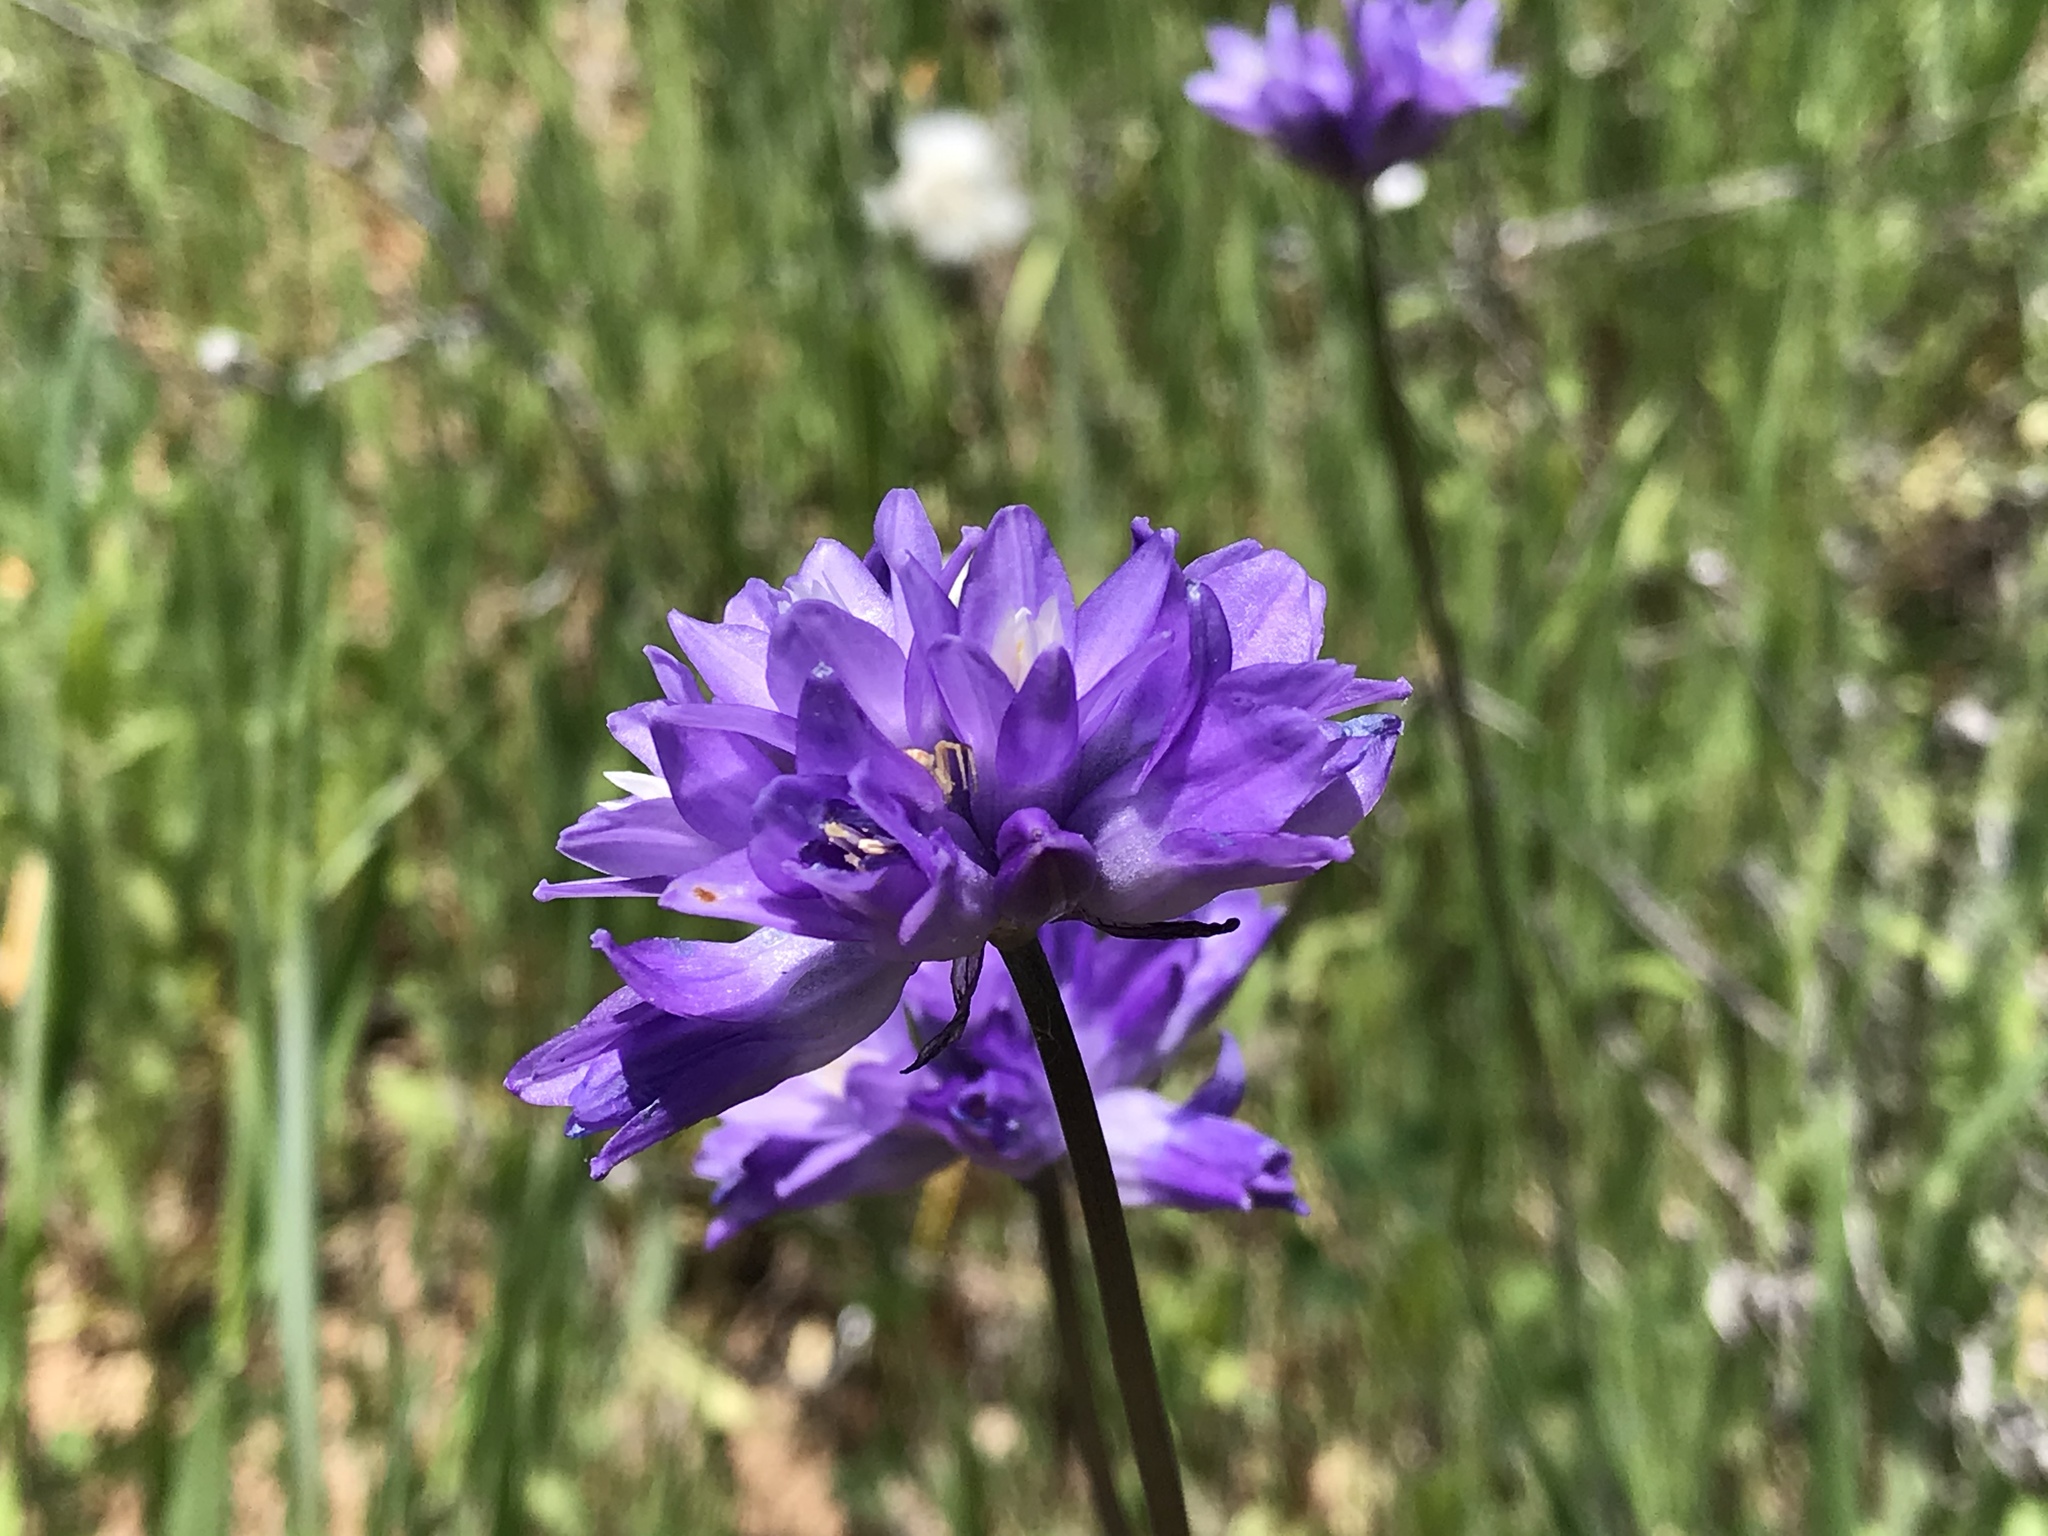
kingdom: Plantae
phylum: Tracheophyta
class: Liliopsida
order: Asparagales
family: Asparagaceae
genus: Dipterostemon
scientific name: Dipterostemon capitatus
